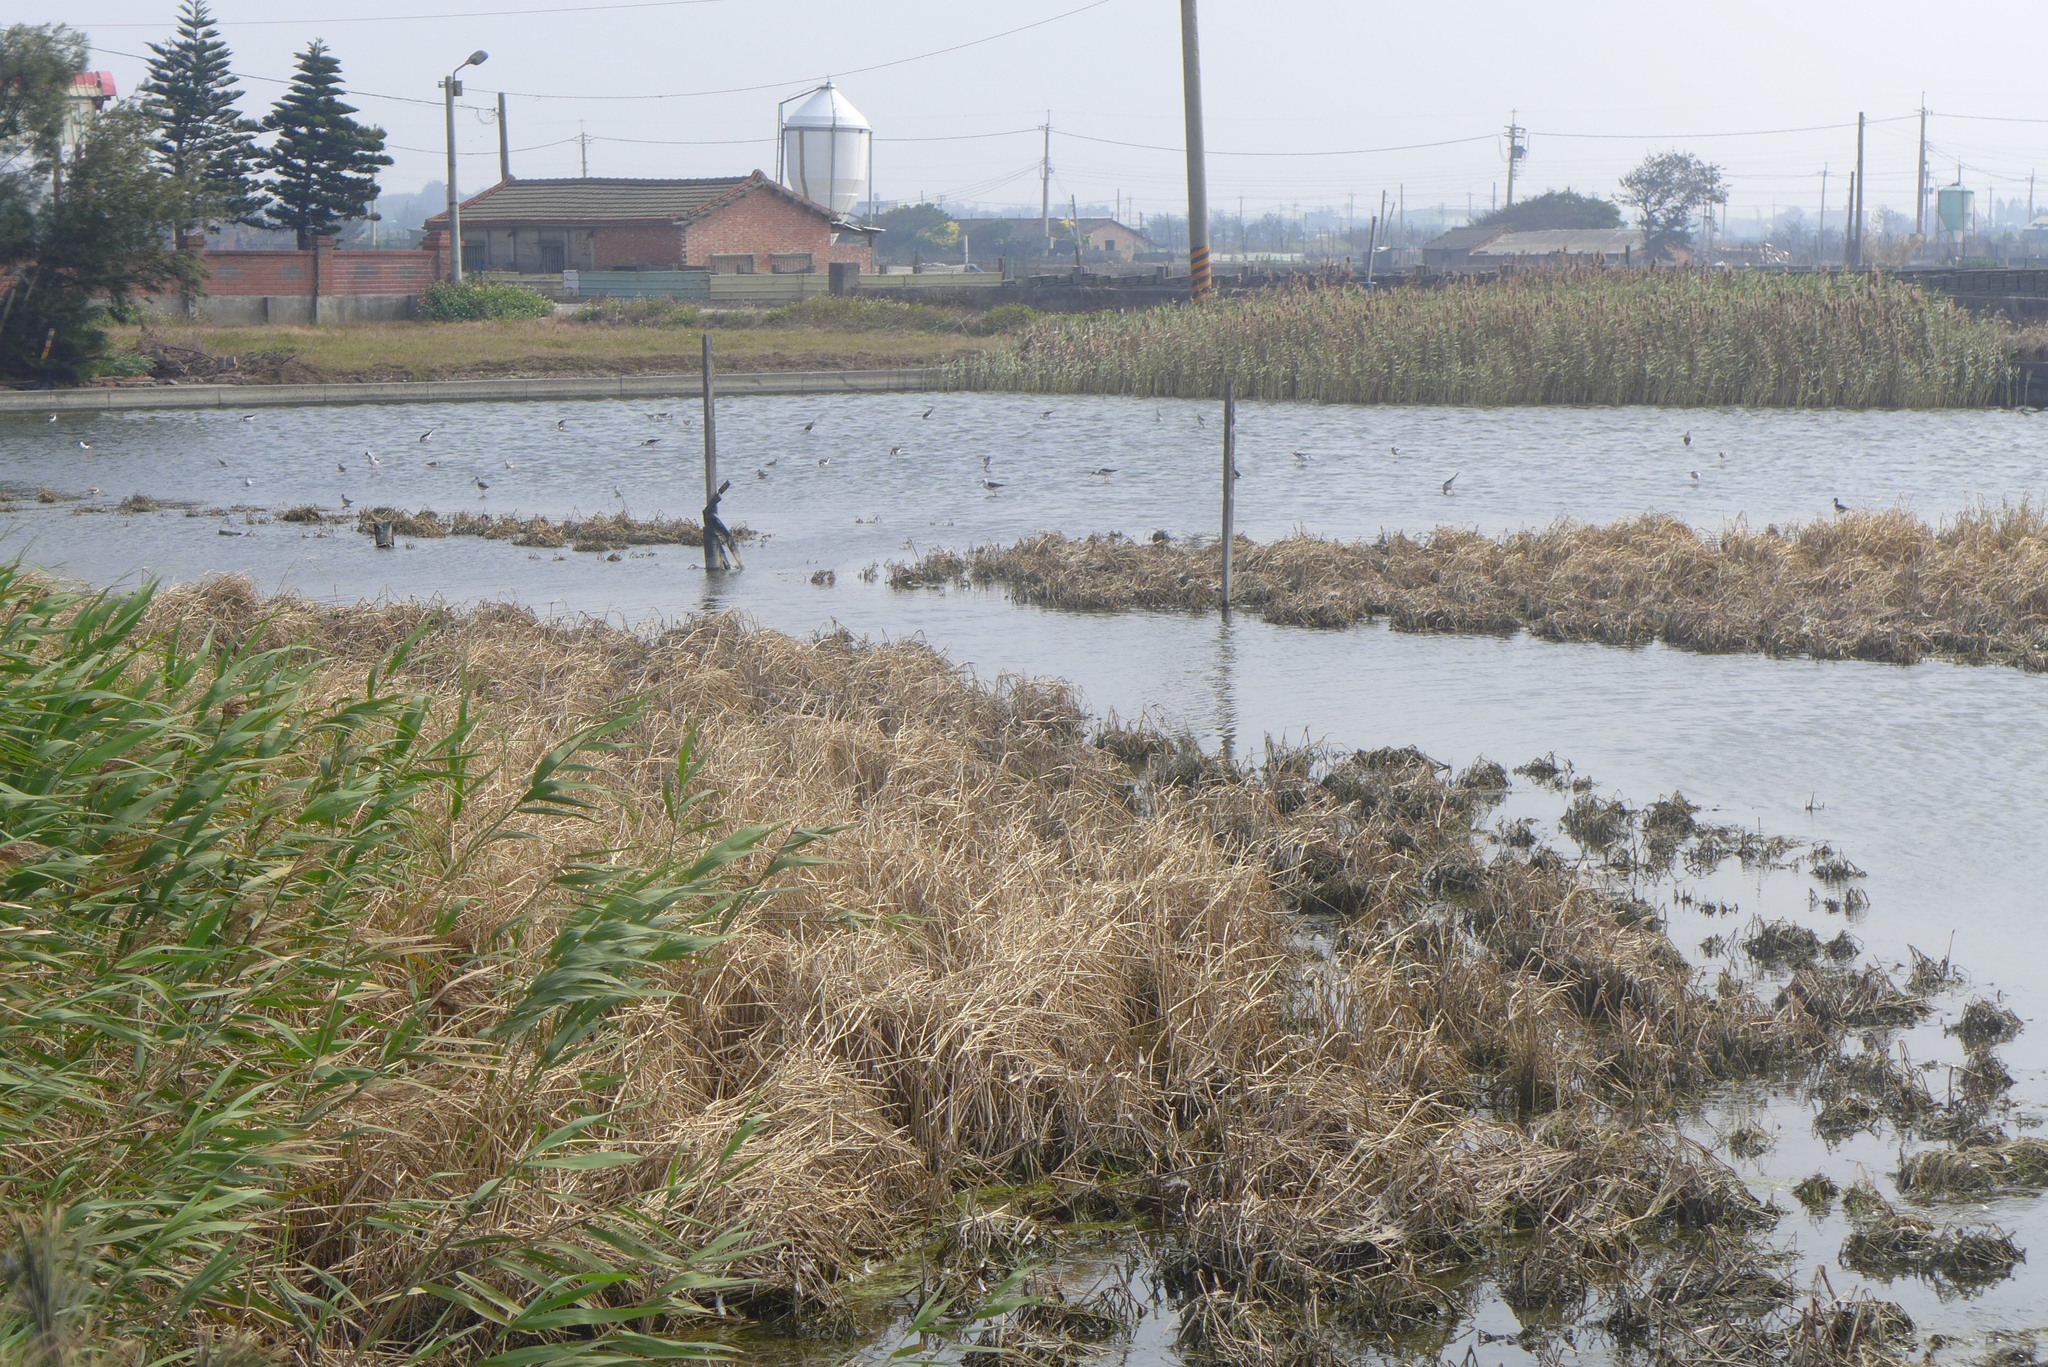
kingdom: Plantae
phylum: Tracheophyta
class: Liliopsida
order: Poales
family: Poaceae
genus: Phragmites
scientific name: Phragmites australis
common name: Common reed
